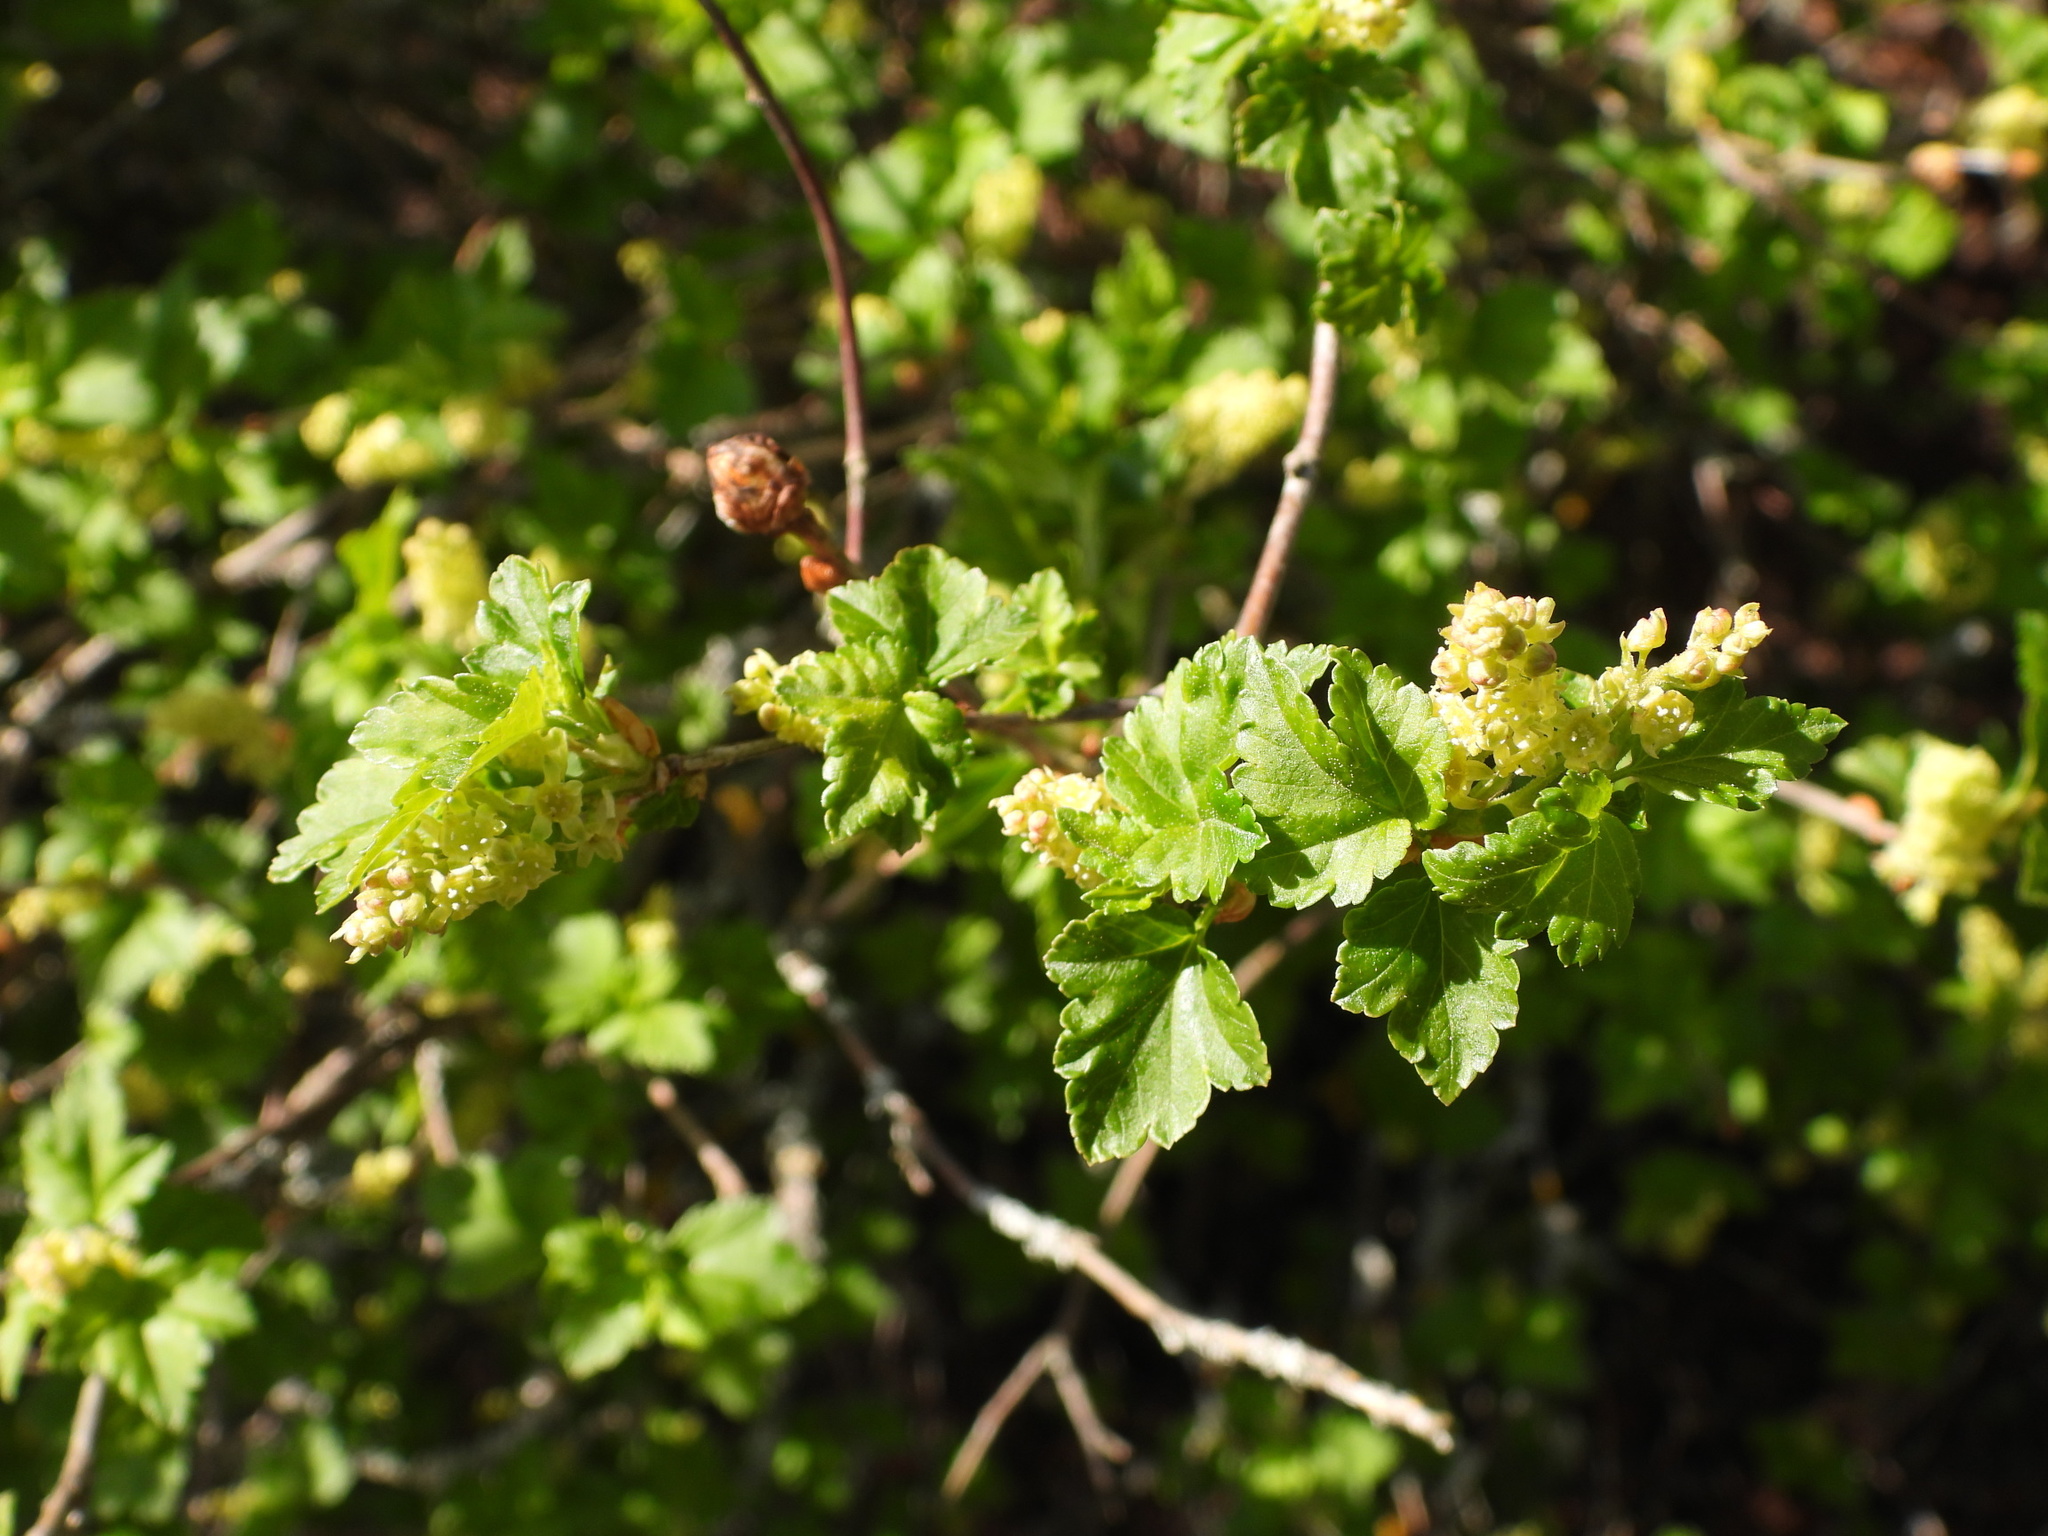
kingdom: Plantae
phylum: Tracheophyta
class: Magnoliopsida
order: Saxifragales
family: Grossulariaceae
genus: Ribes
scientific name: Ribes alpinum
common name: Alpine currant
